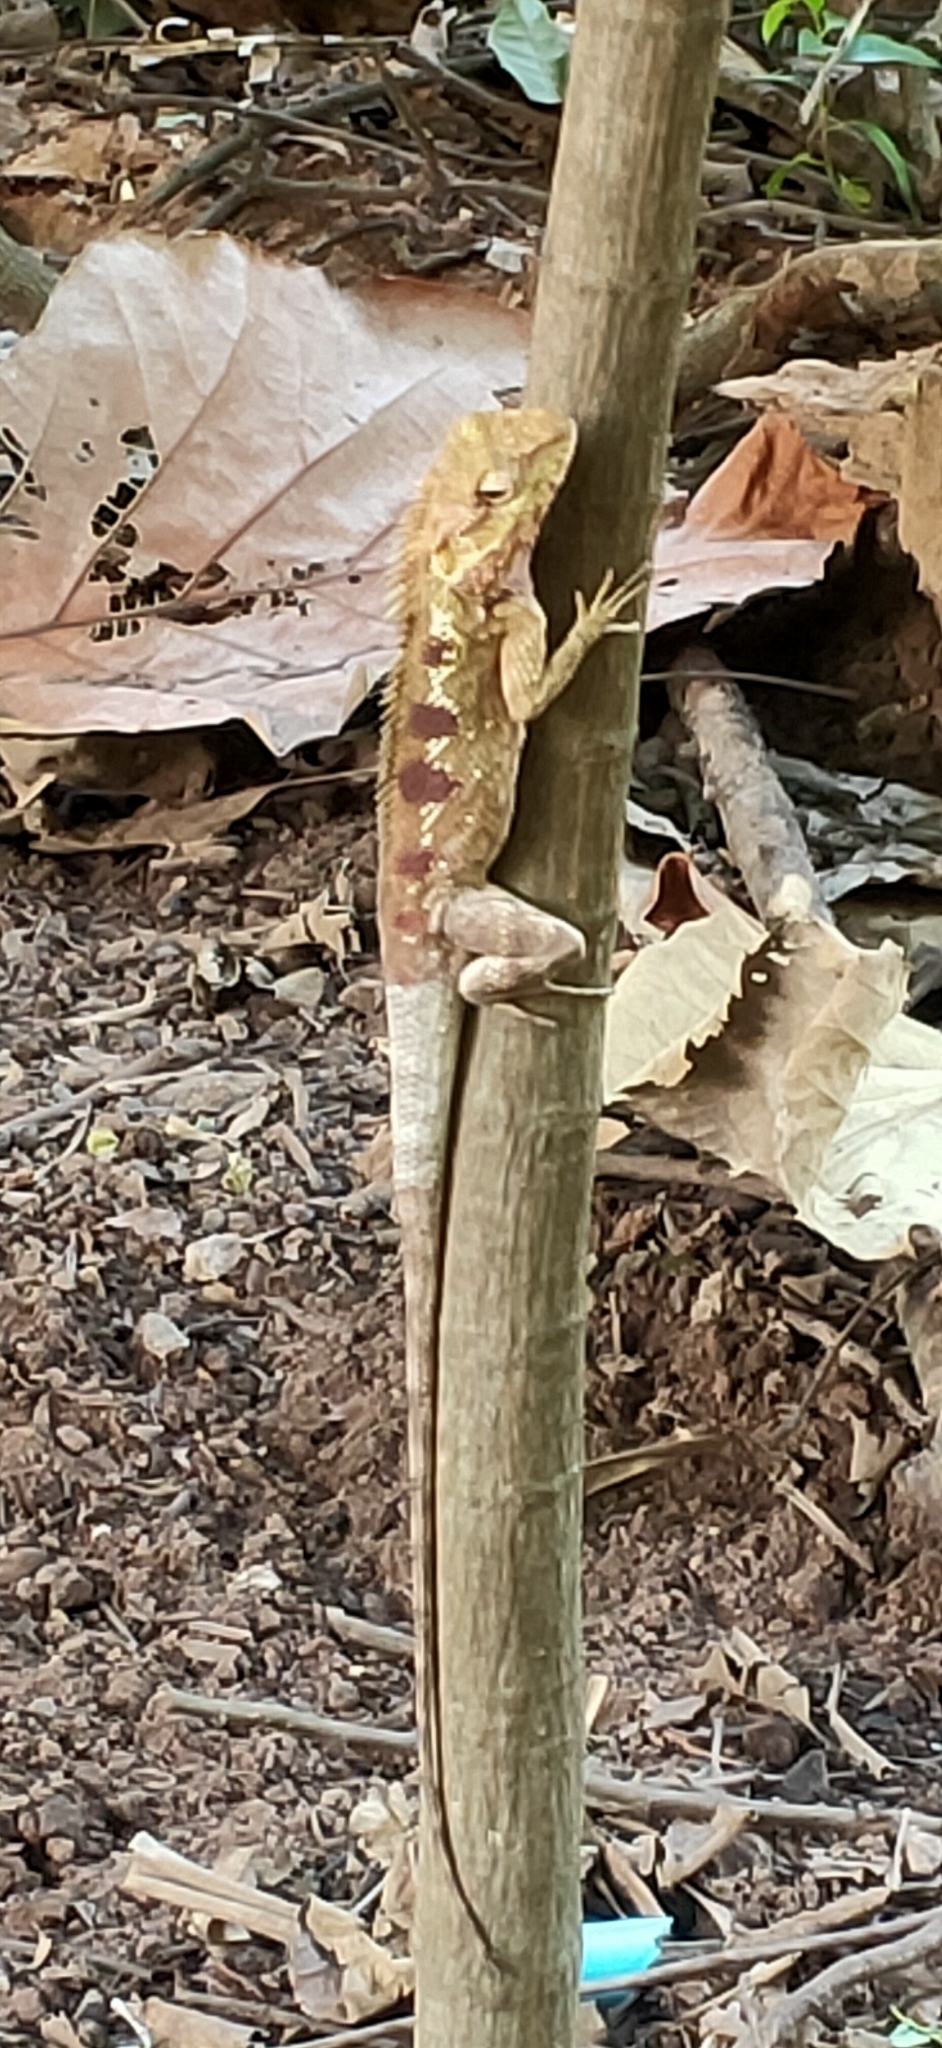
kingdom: Animalia
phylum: Chordata
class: Squamata
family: Agamidae
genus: Calotes
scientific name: Calotes goetzi
